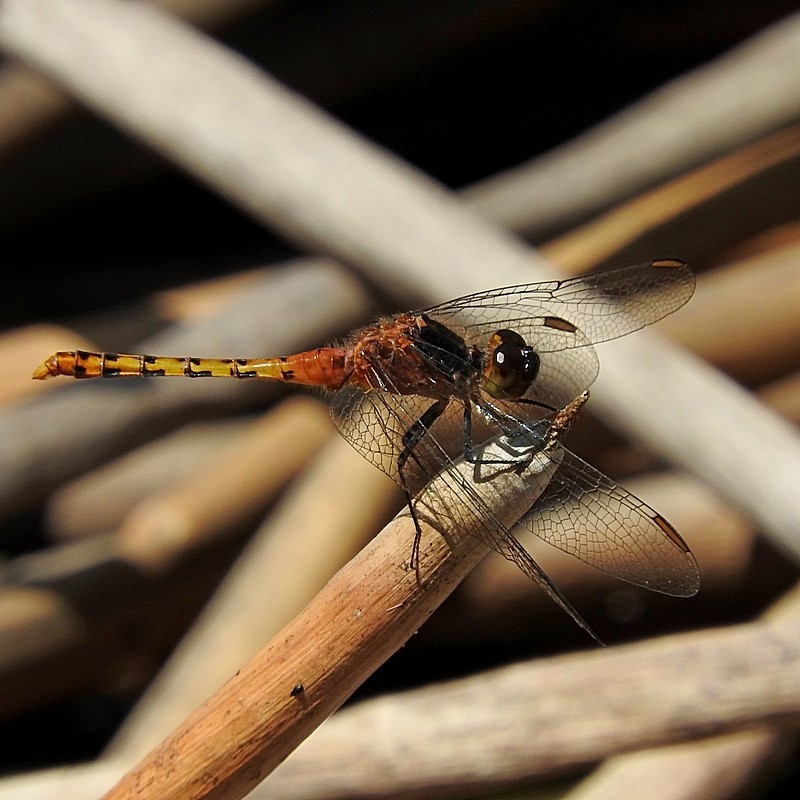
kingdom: Animalia
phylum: Arthropoda
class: Insecta
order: Odonata
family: Libellulidae
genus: Diplacodes
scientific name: Diplacodes melanopsis
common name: Black-faced percher
